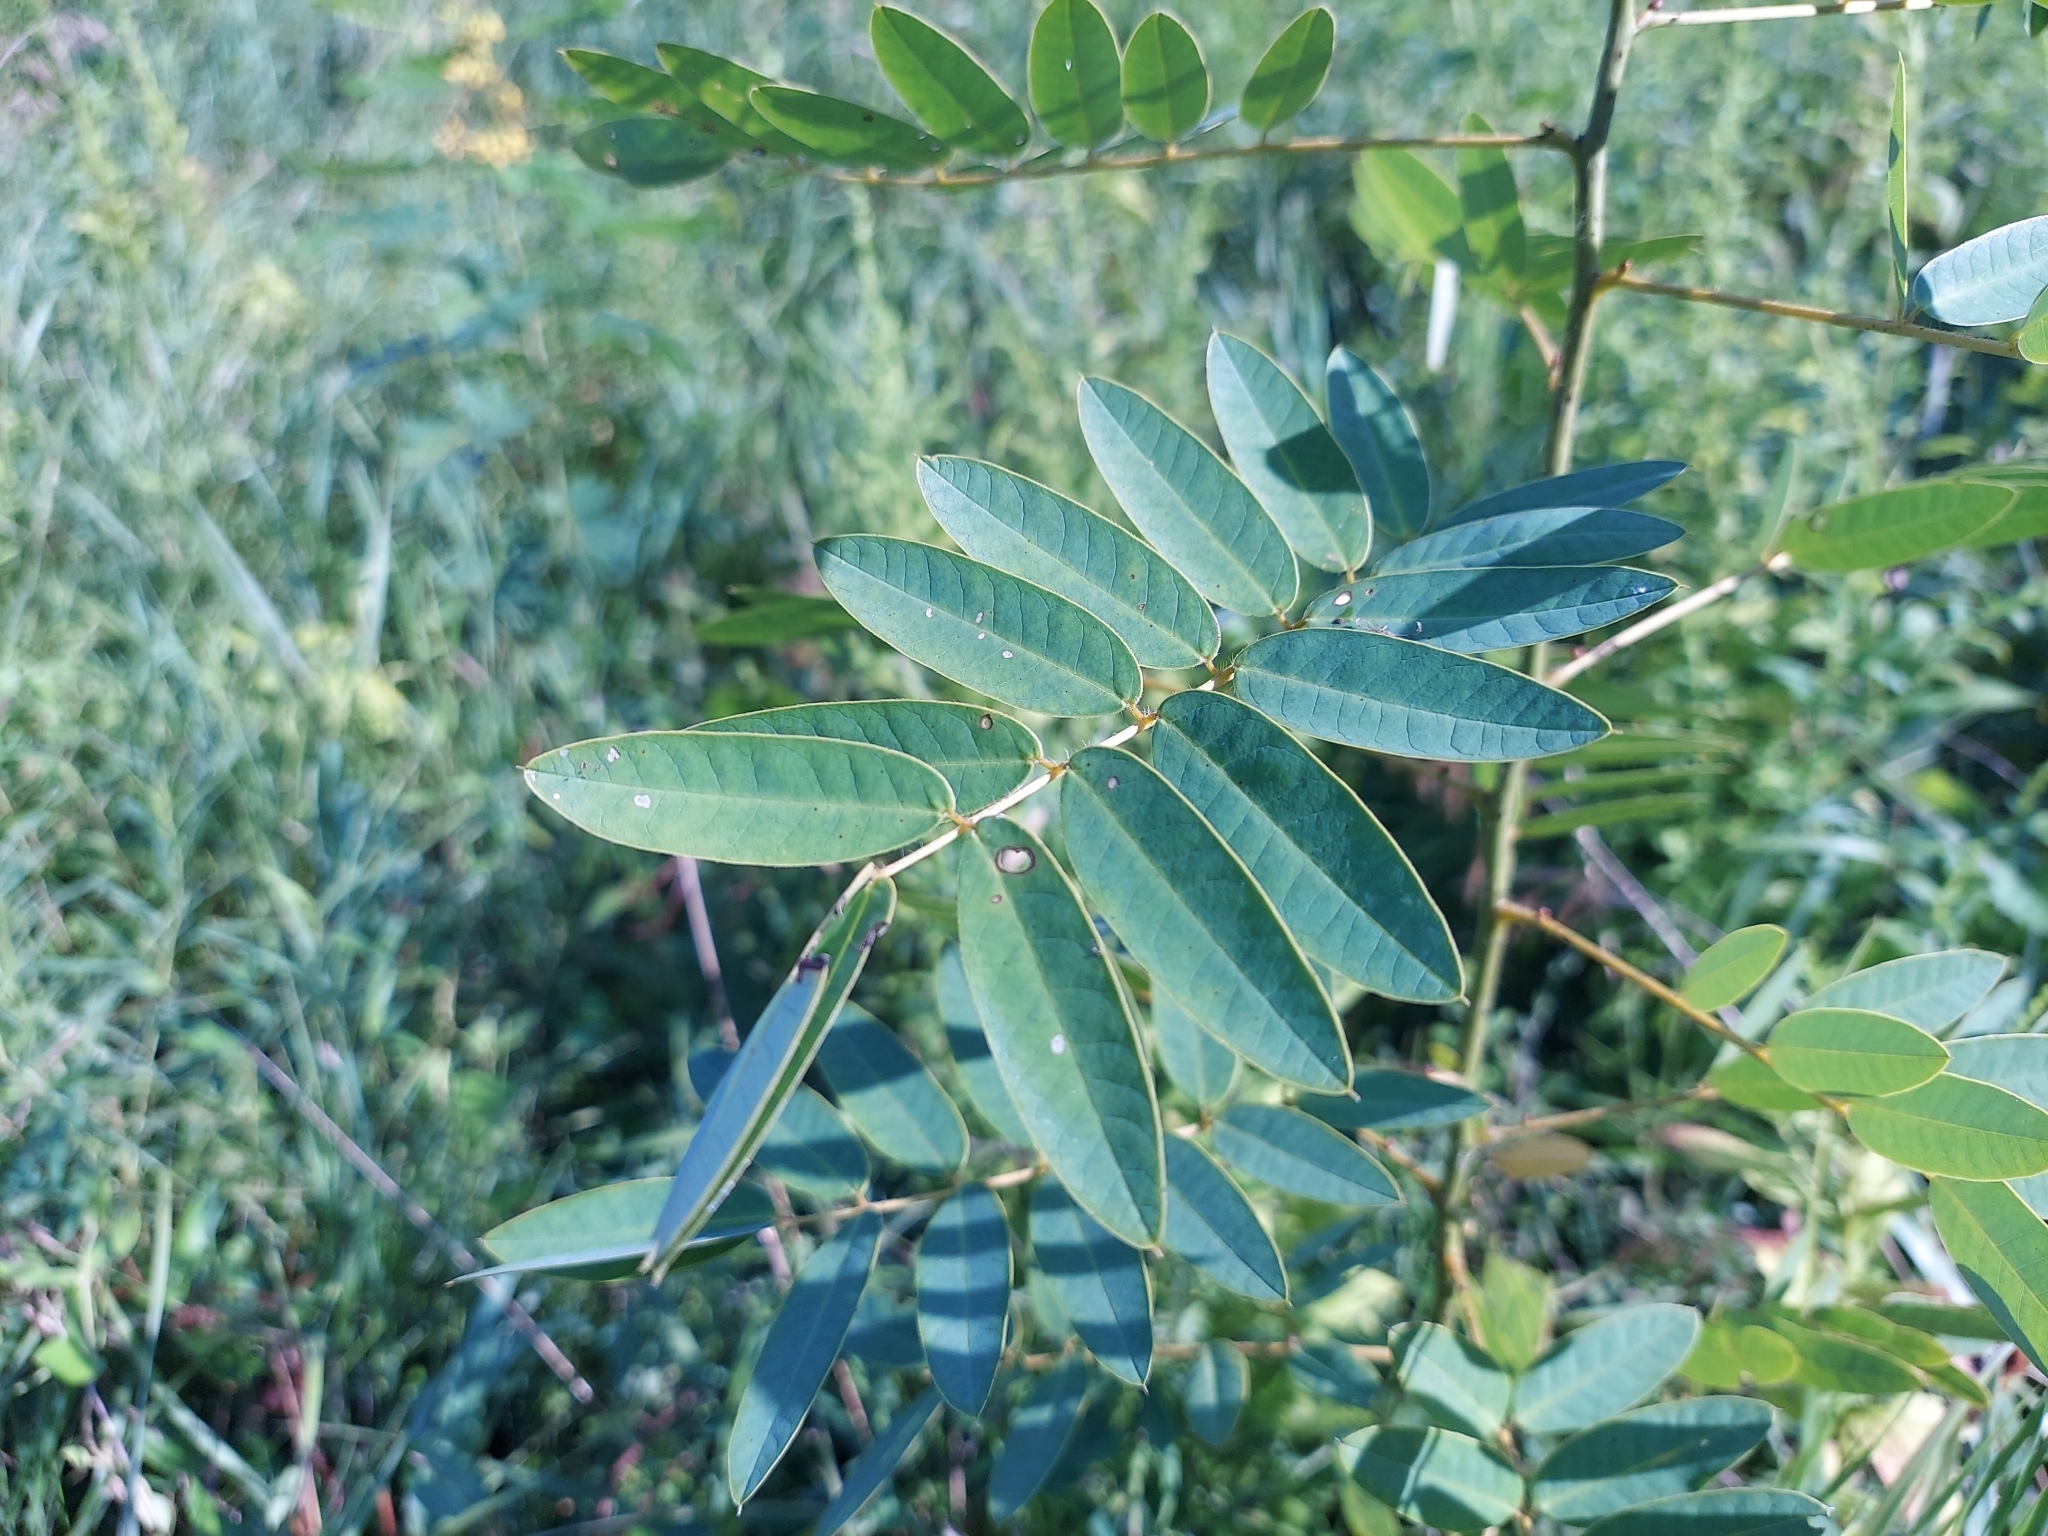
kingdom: Plantae
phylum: Tracheophyta
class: Magnoliopsida
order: Fabales
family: Fabaceae
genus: Senna
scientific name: Senna marilandica
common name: American senna
